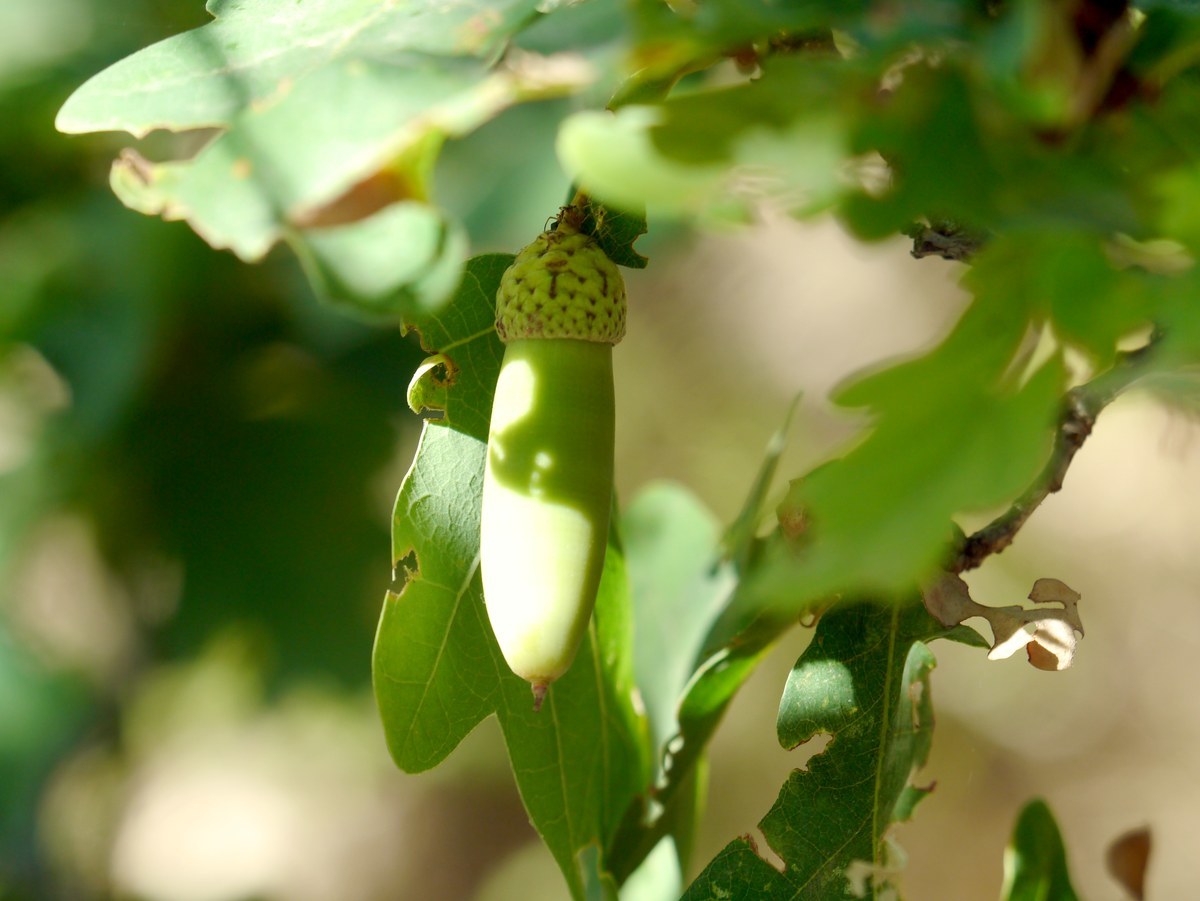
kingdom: Plantae
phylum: Tracheophyta
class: Magnoliopsida
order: Fagales
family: Fagaceae
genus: Quercus
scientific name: Quercus robur
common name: Pedunculate oak
